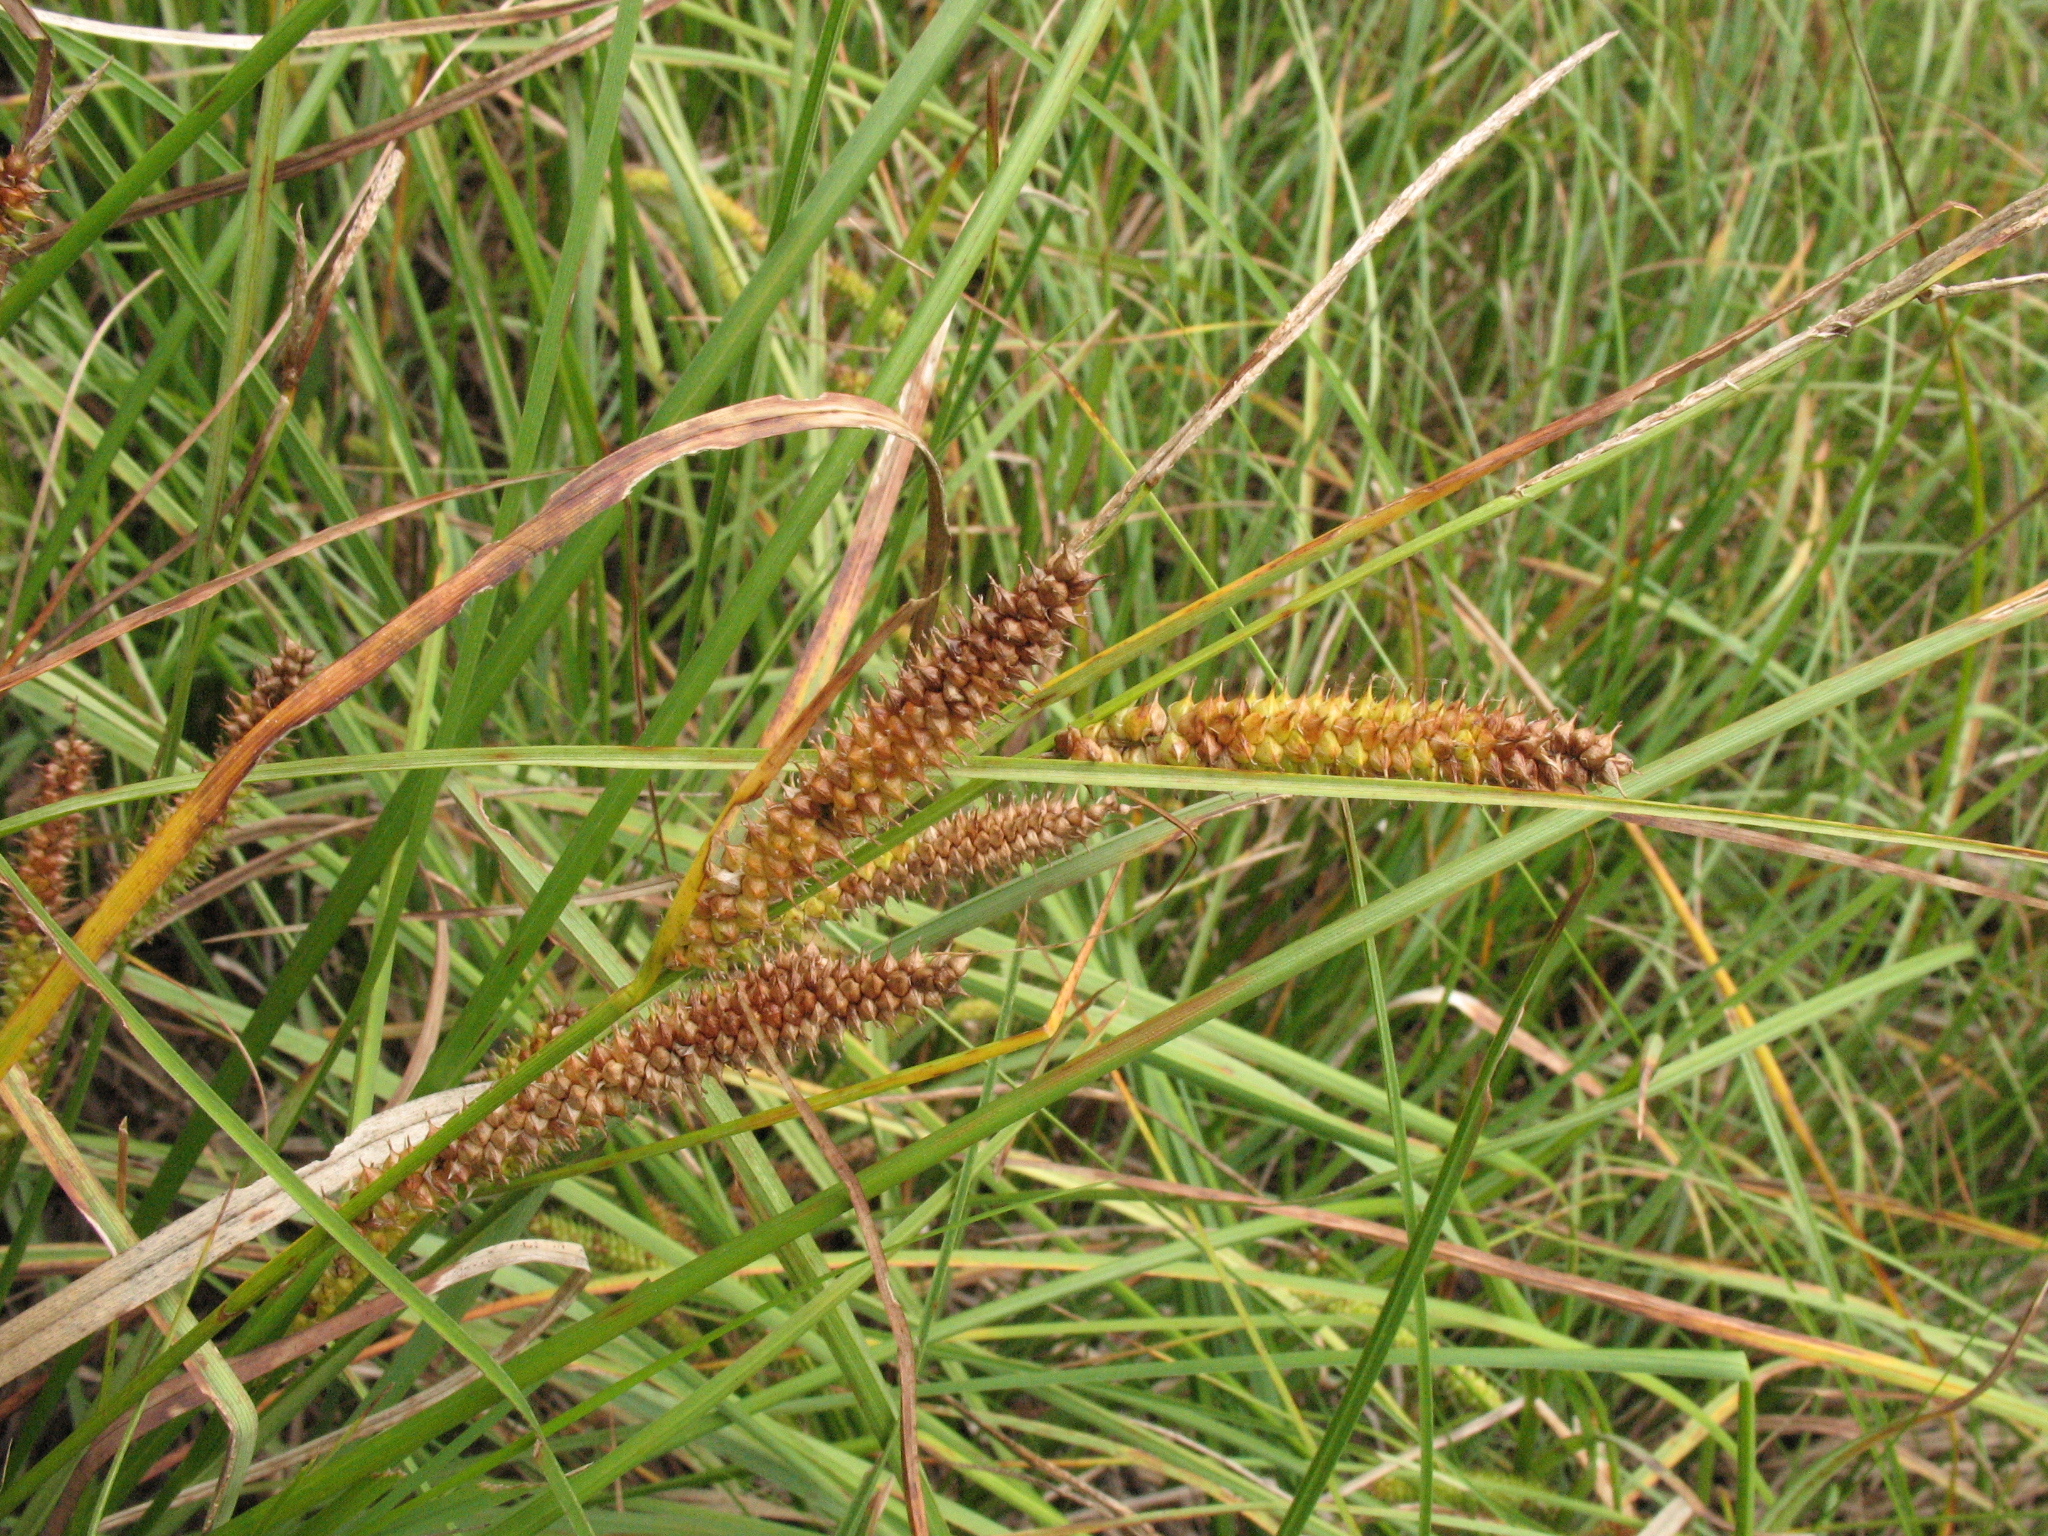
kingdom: Plantae
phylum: Tracheophyta
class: Liliopsida
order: Poales
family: Cyperaceae
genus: Carex
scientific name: Carex rostrata
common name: Bottle sedge
